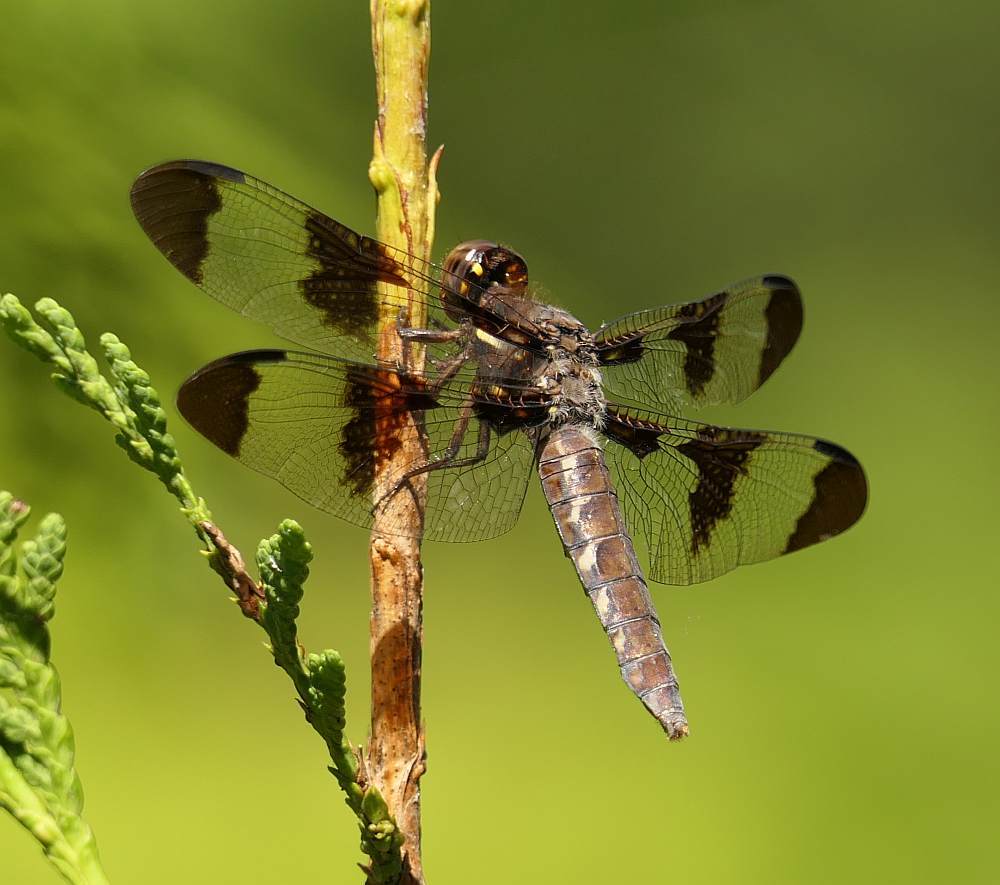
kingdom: Animalia
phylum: Arthropoda
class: Insecta
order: Odonata
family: Libellulidae
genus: Plathemis
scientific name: Plathemis lydia
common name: Common whitetail
